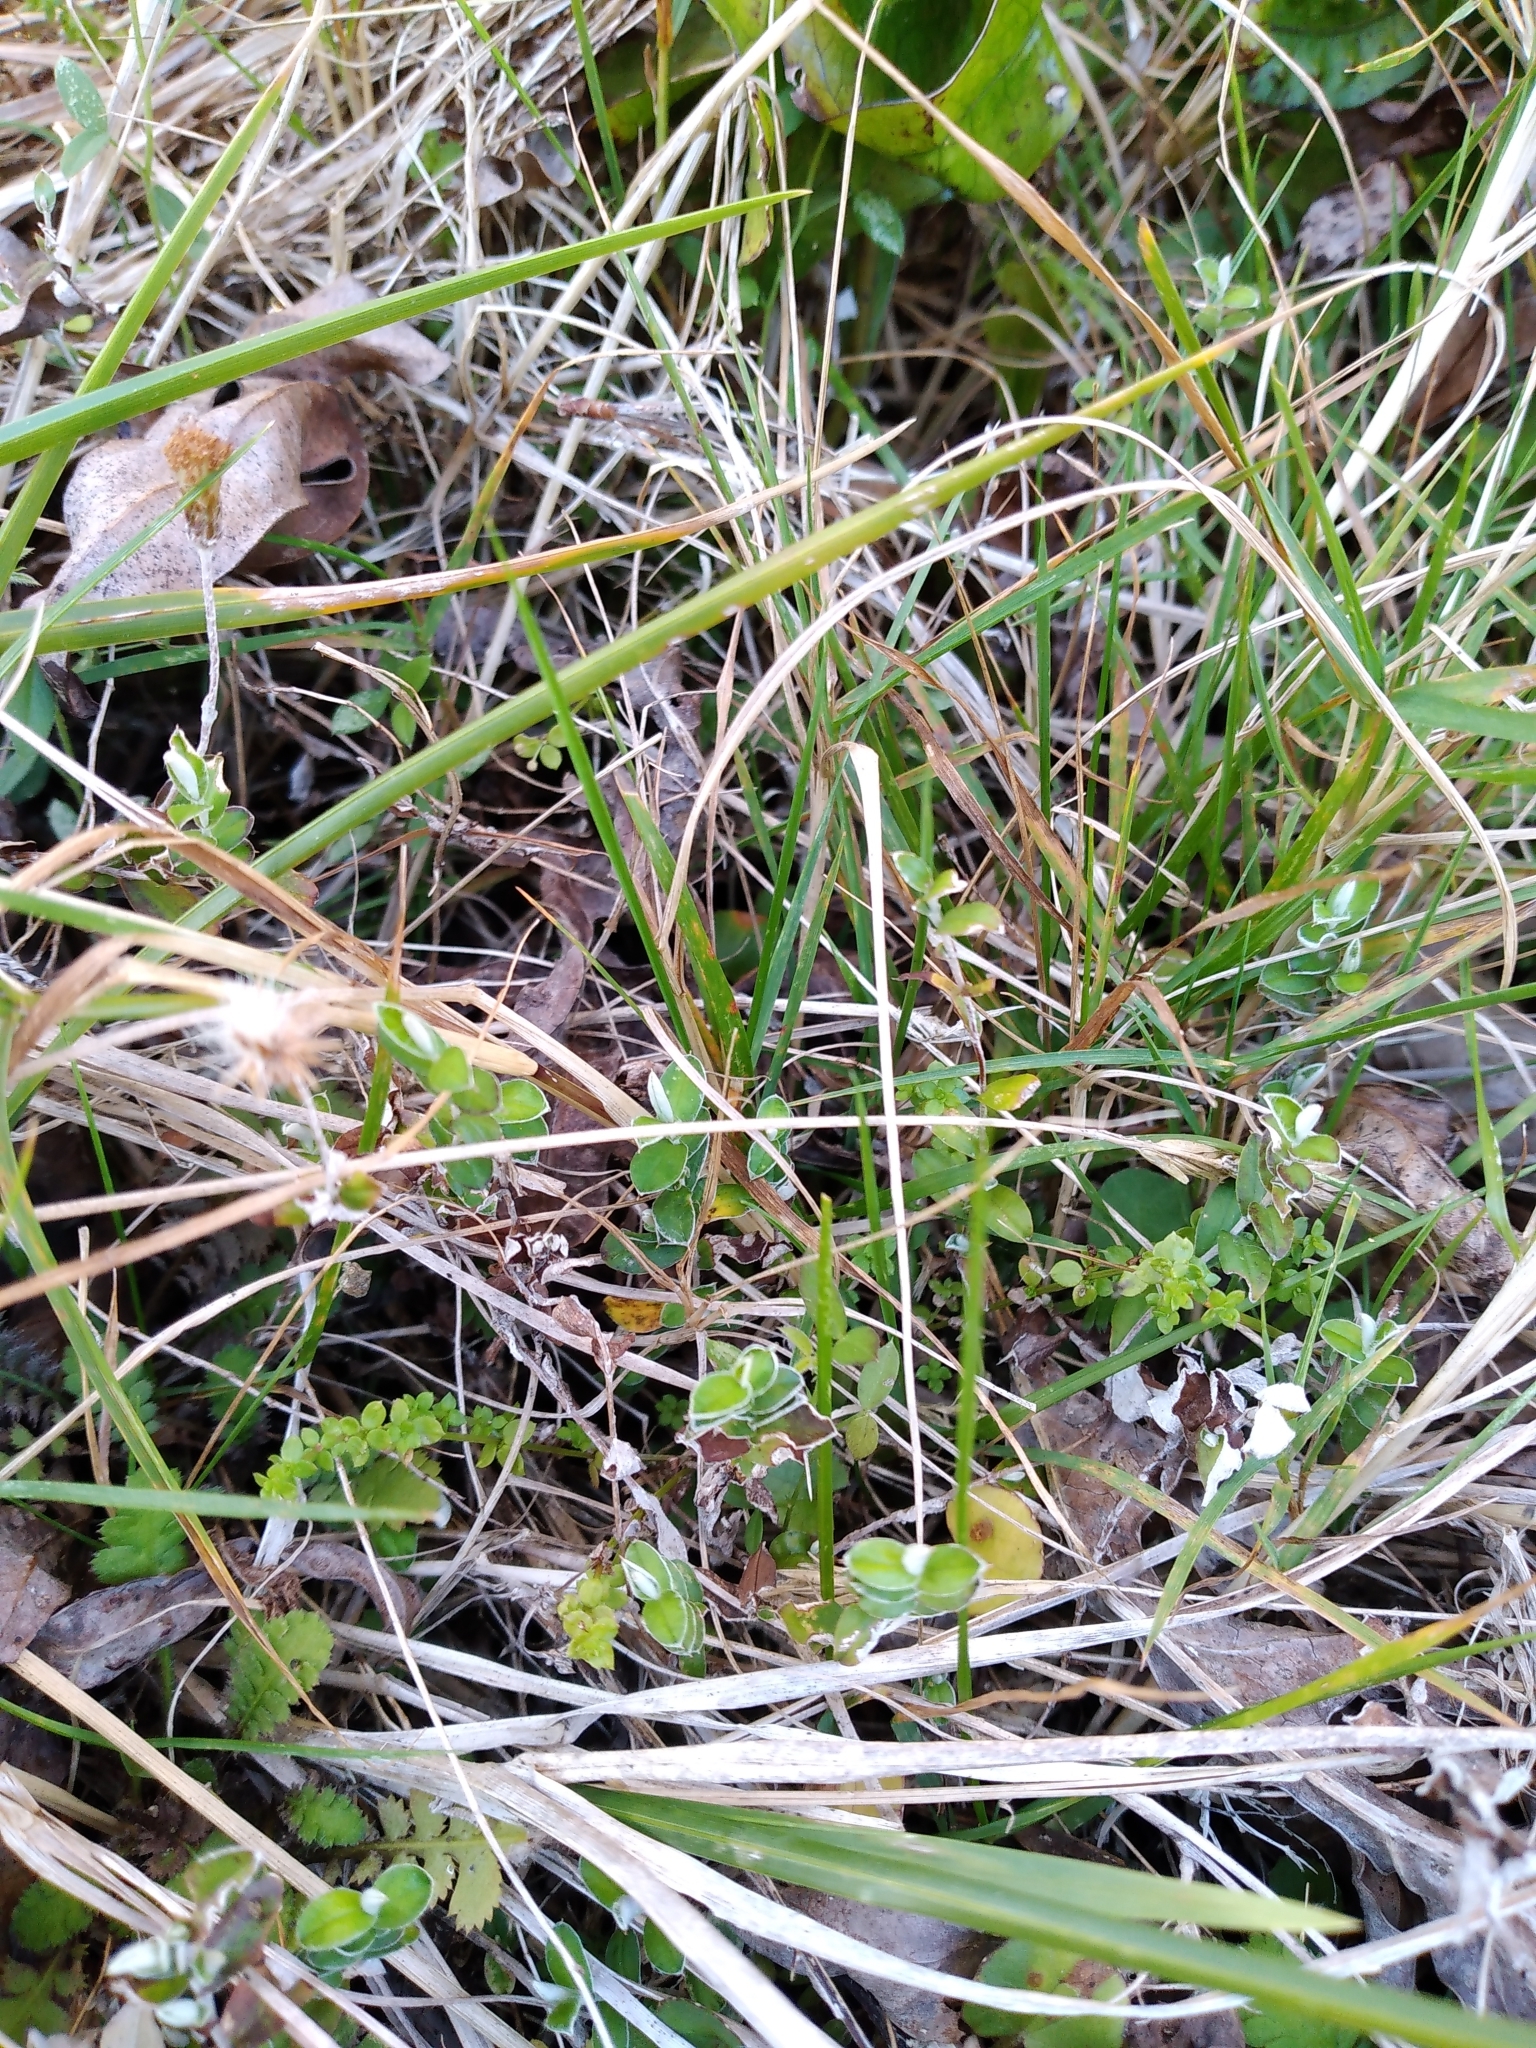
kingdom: Plantae
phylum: Tracheophyta
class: Magnoliopsida
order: Asterales
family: Asteraceae
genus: Helichrysum
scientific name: Helichrysum filicaule
